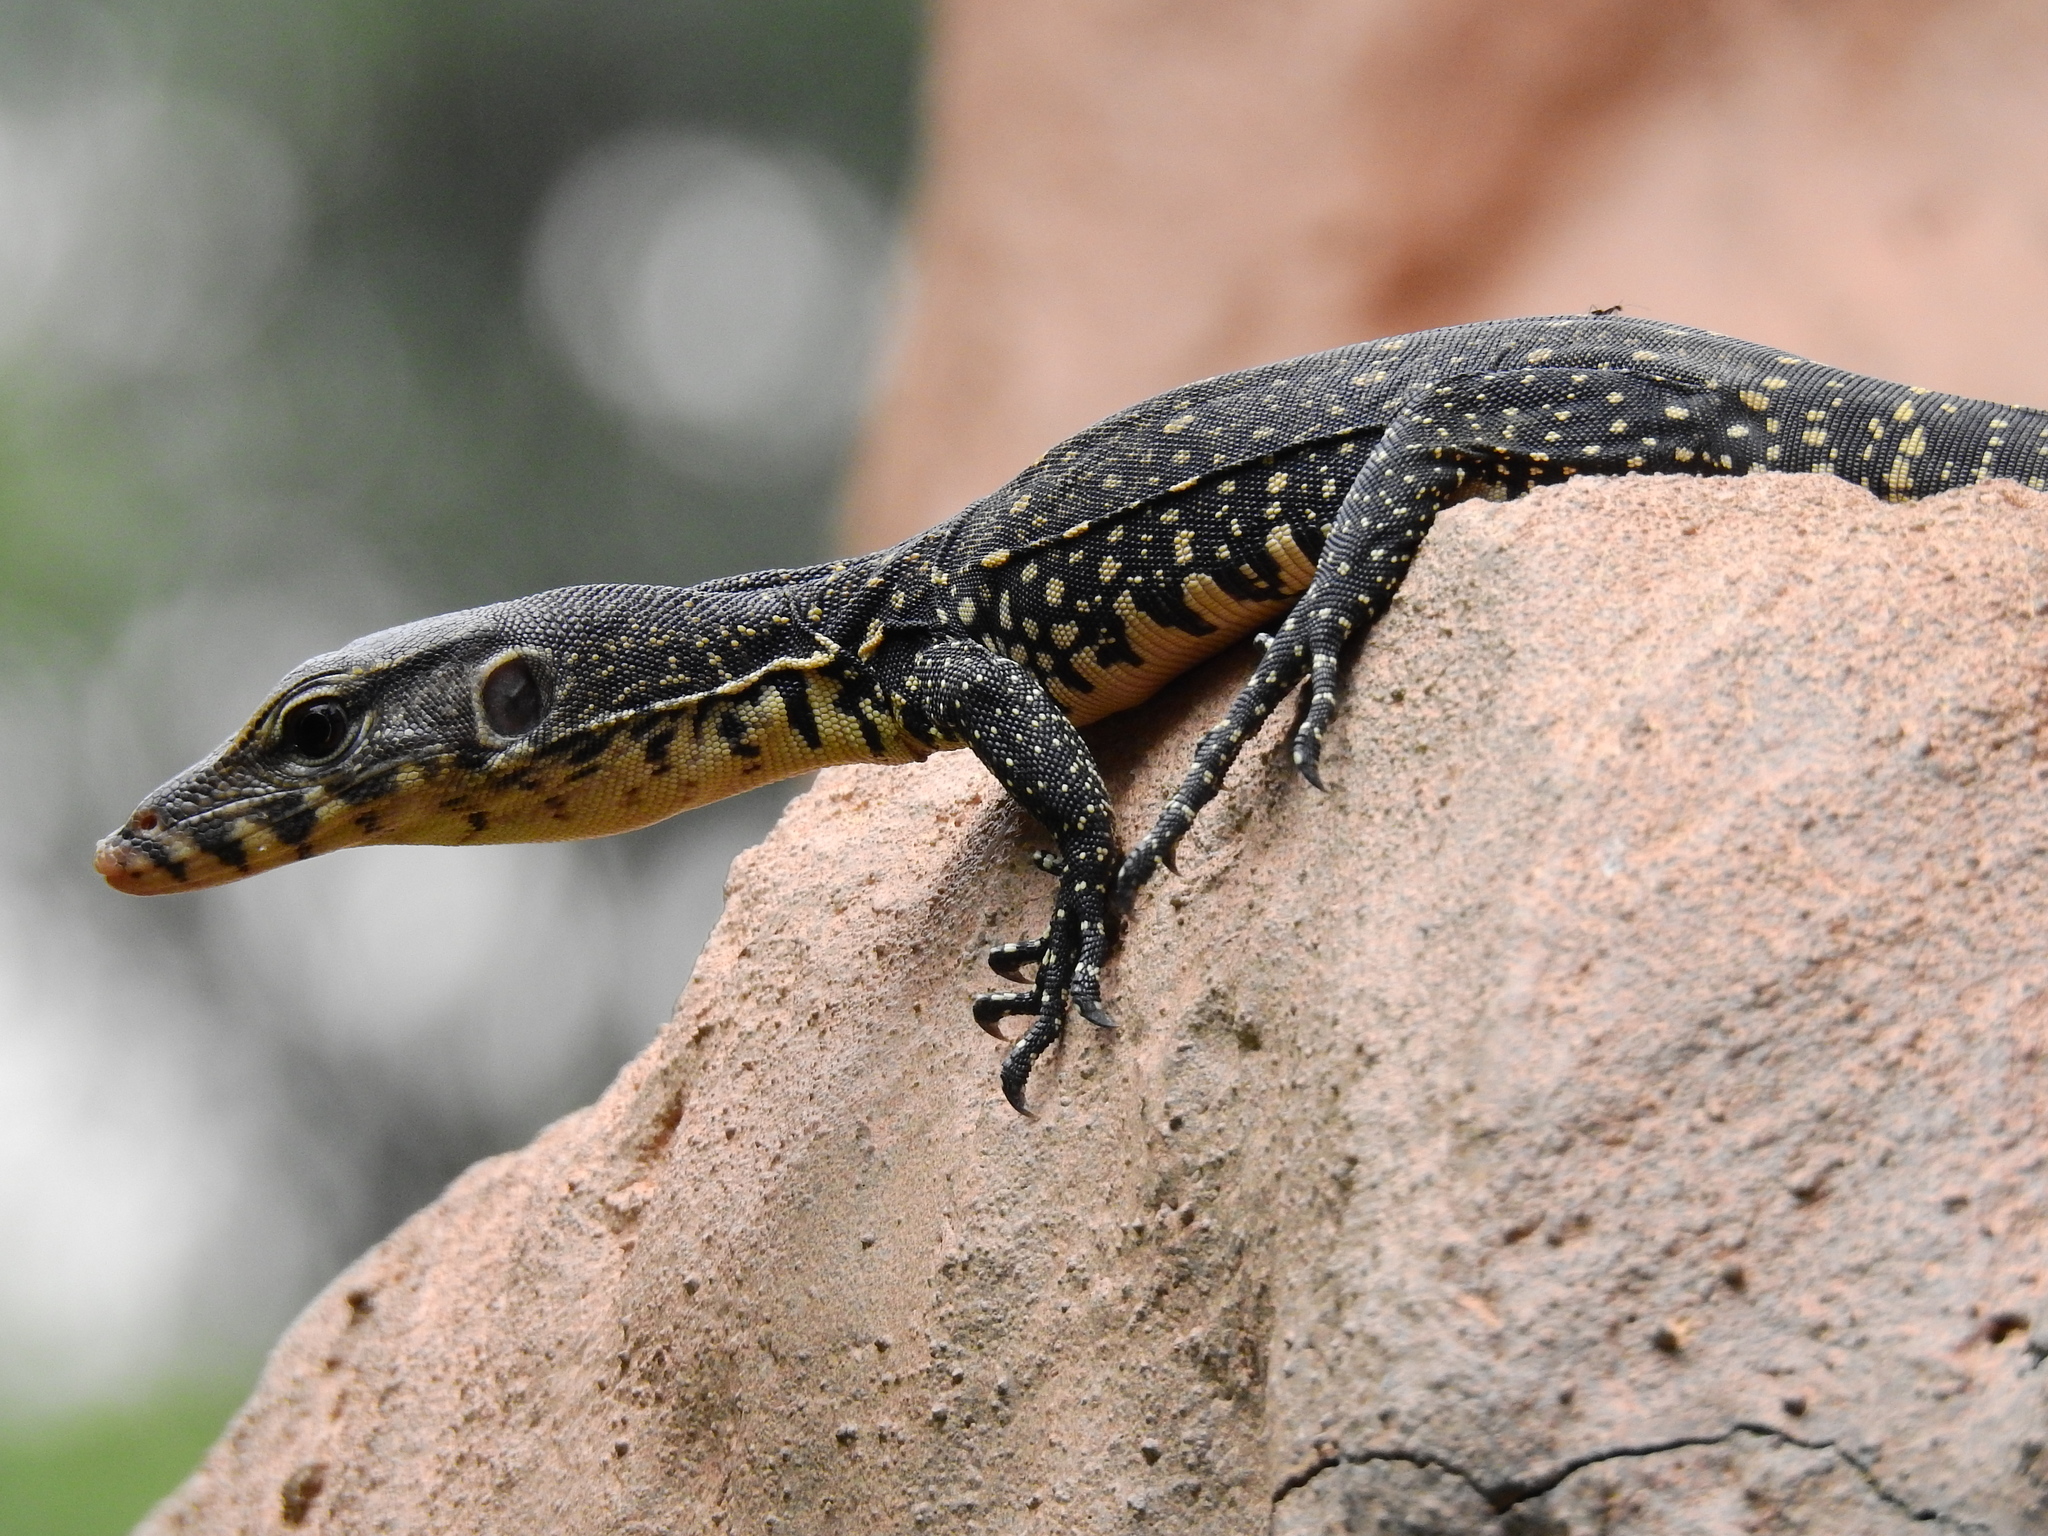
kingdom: Animalia
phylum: Chordata
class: Squamata
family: Varanidae
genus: Varanus
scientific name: Varanus salvator
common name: Common water monitor
